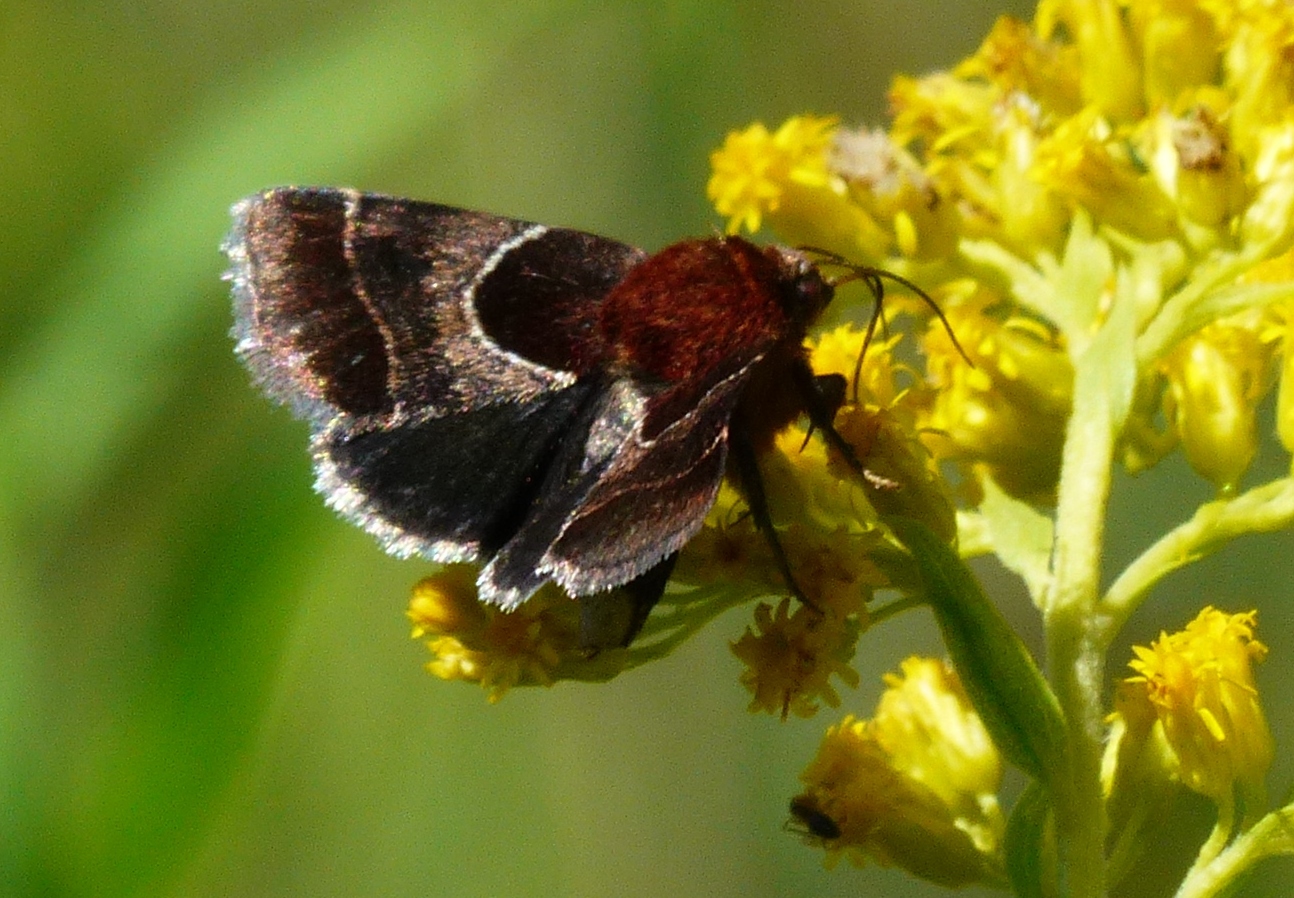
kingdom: Animalia
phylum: Arthropoda
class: Insecta
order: Lepidoptera
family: Noctuidae
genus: Schinia
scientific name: Schinia arcigera
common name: Arcigera flower moth
